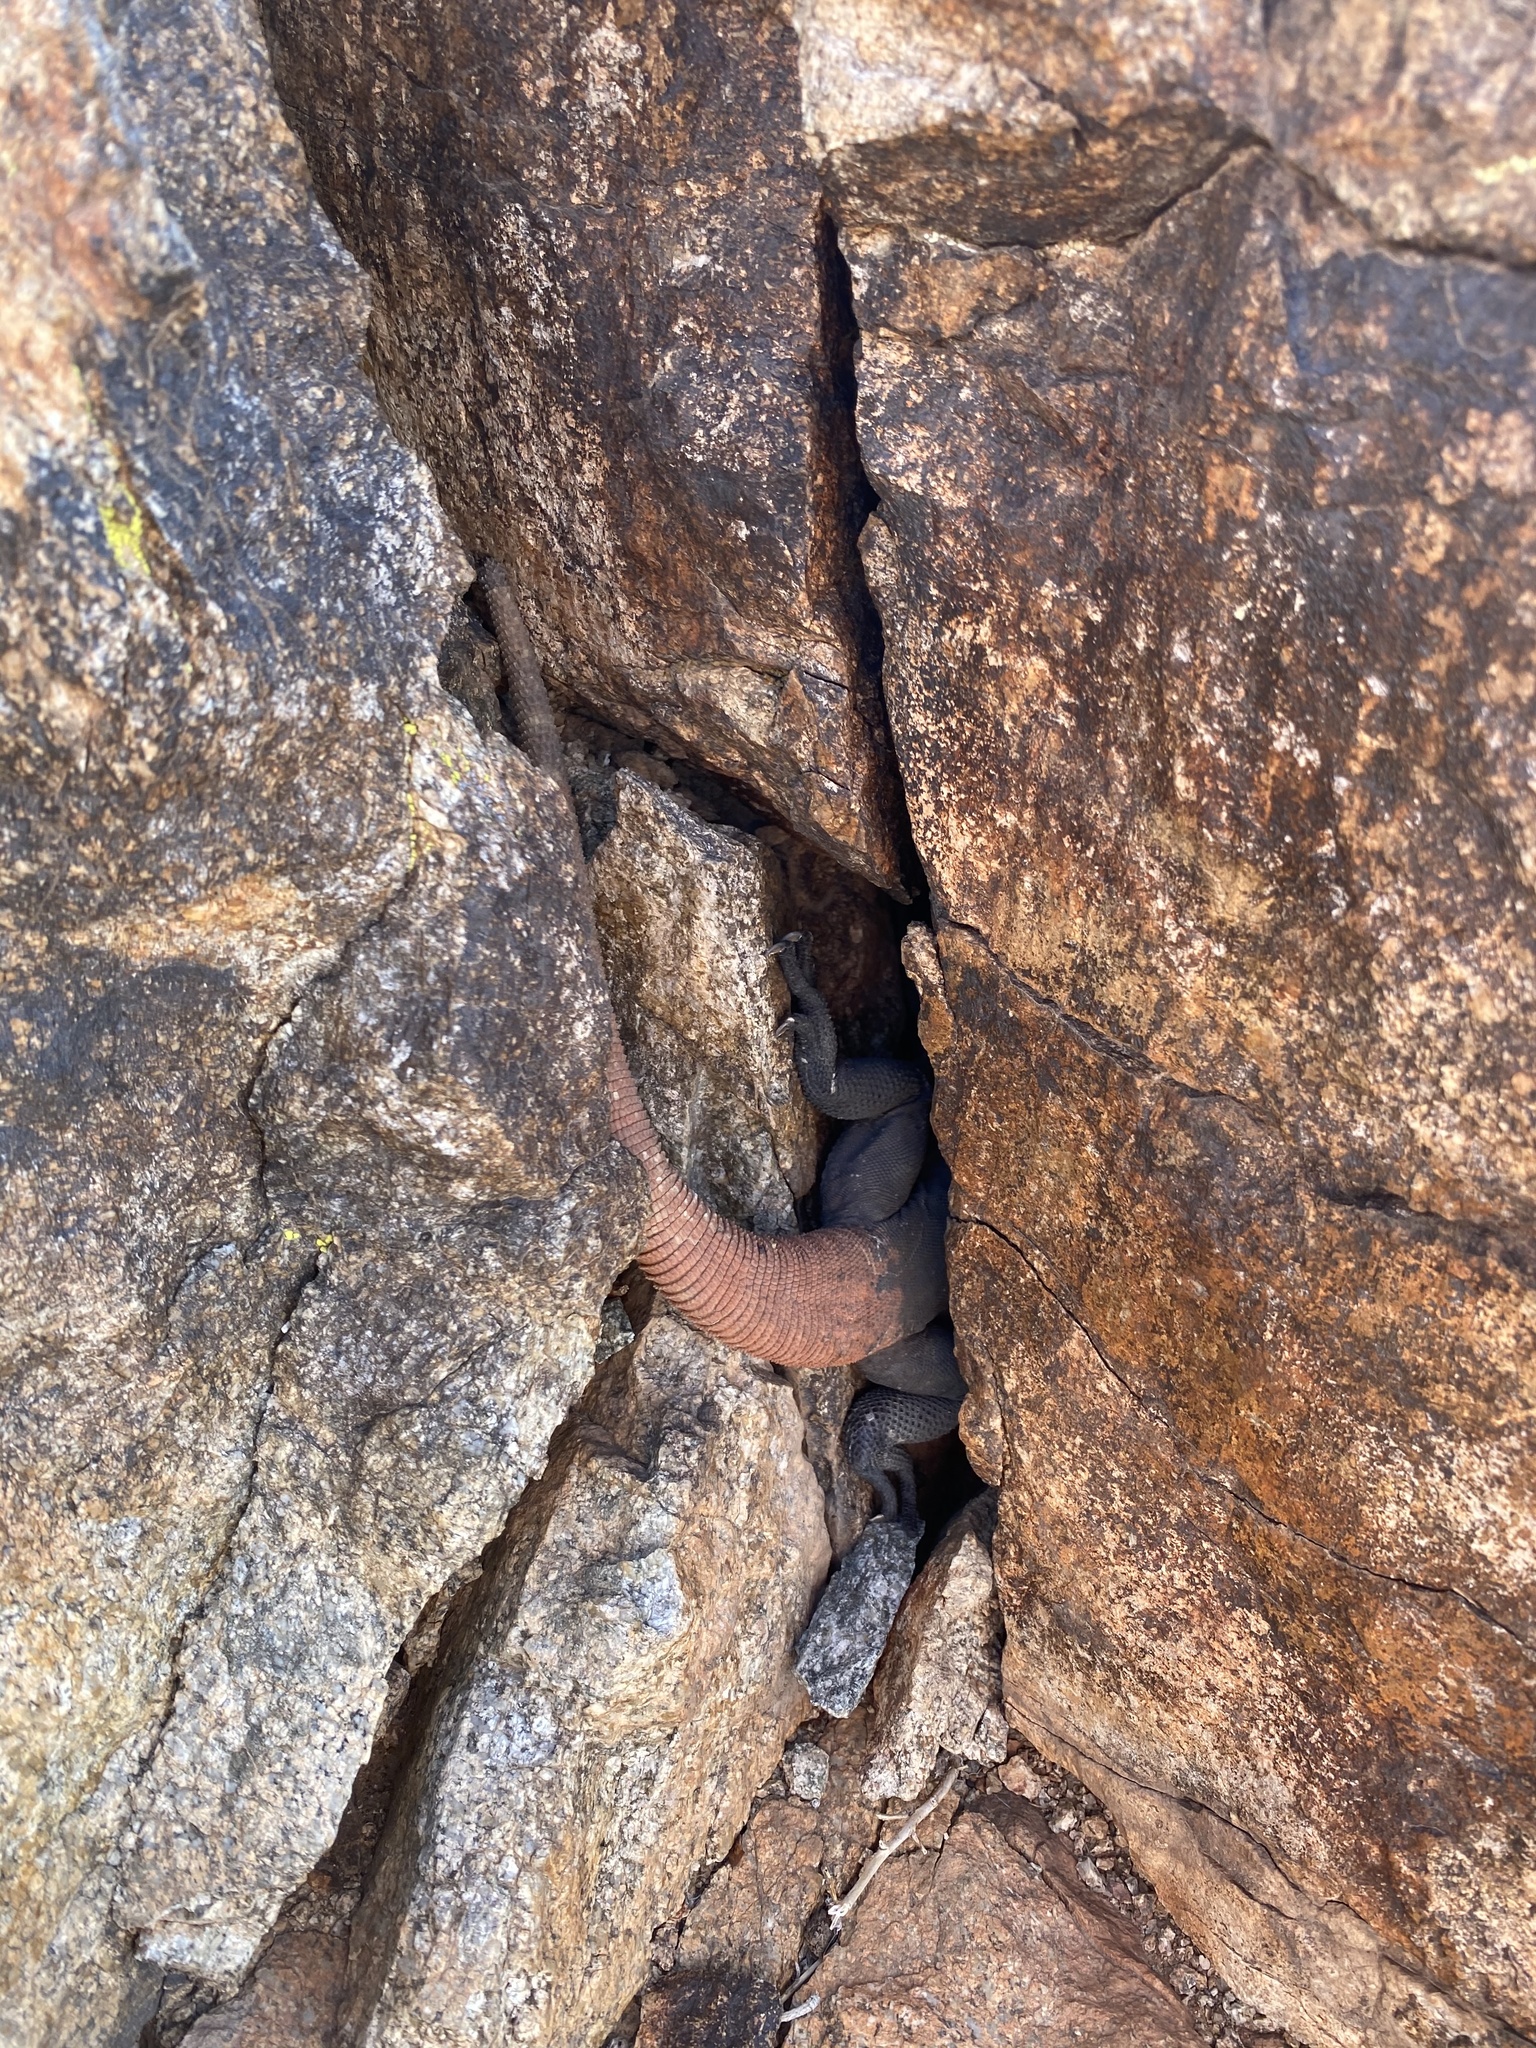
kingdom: Animalia
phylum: Chordata
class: Squamata
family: Iguanidae
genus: Sauromalus
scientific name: Sauromalus ater
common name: Northern chuckwalla
